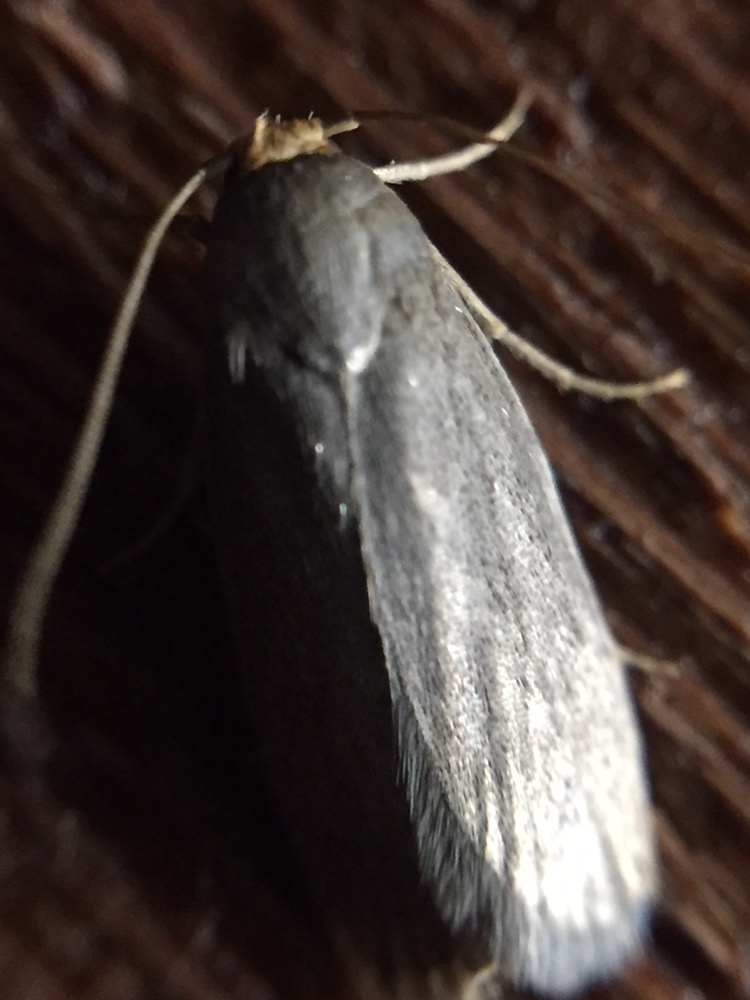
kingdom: Animalia
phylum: Arthropoda
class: Insecta
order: Lepidoptera
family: Pyralidae
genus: Achroia
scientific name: Achroia grisella
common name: Lesser wax moth
